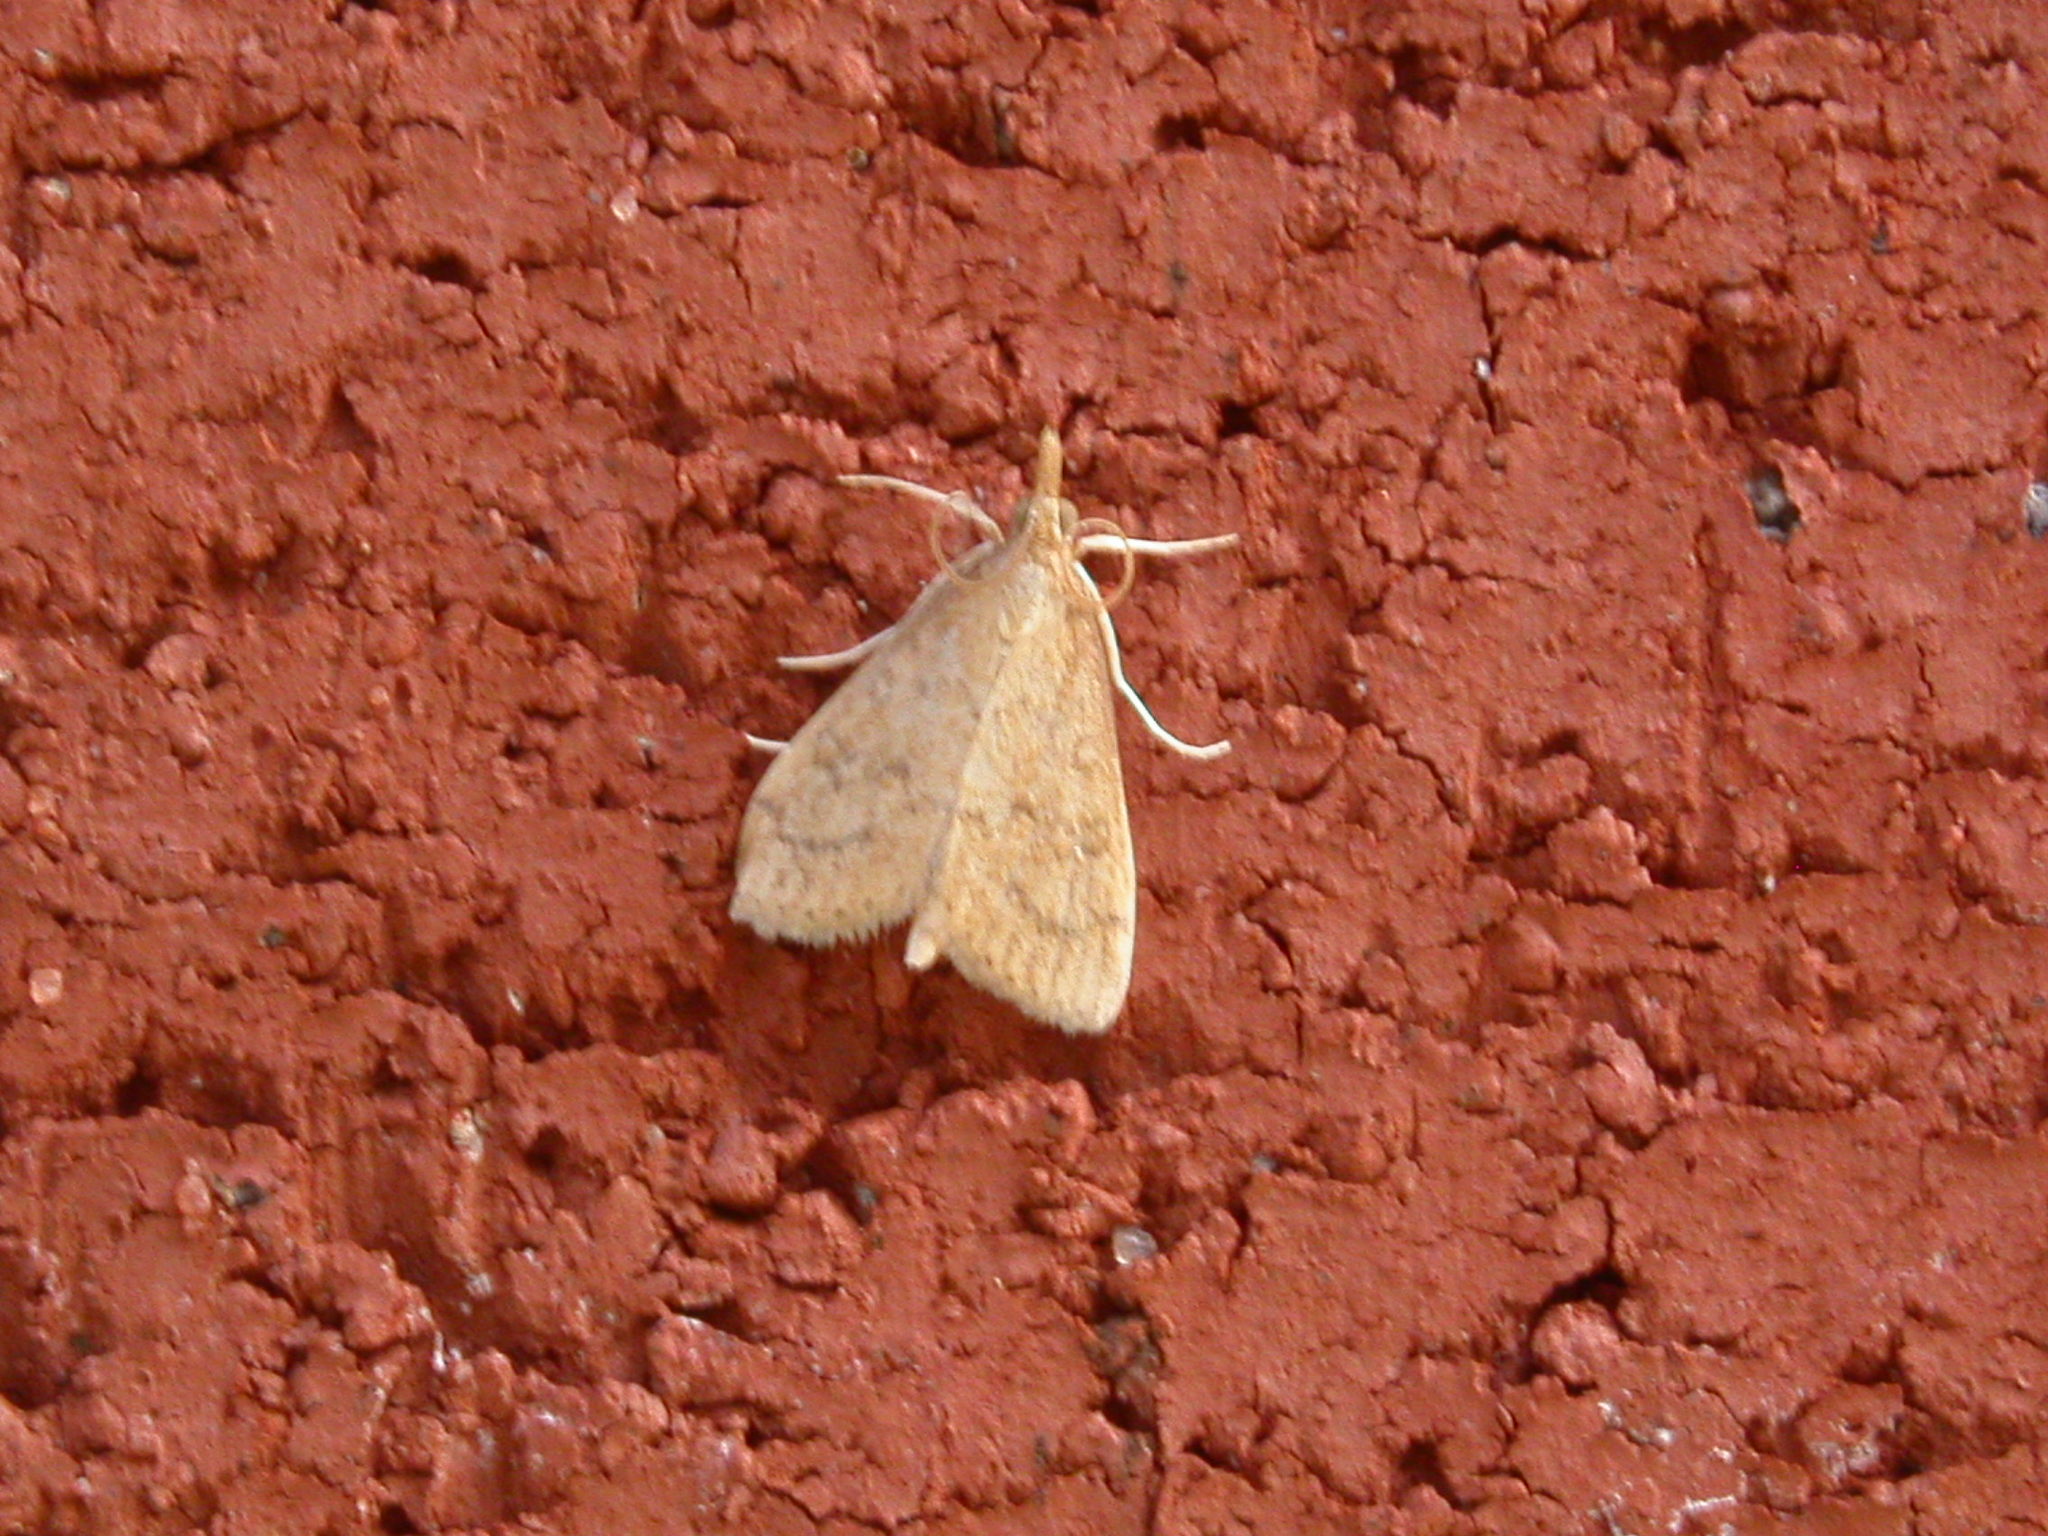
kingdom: Animalia
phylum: Arthropoda
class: Insecta
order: Lepidoptera
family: Crambidae
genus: Udea
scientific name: Udea rubigalis
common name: Celery leaftier moth
